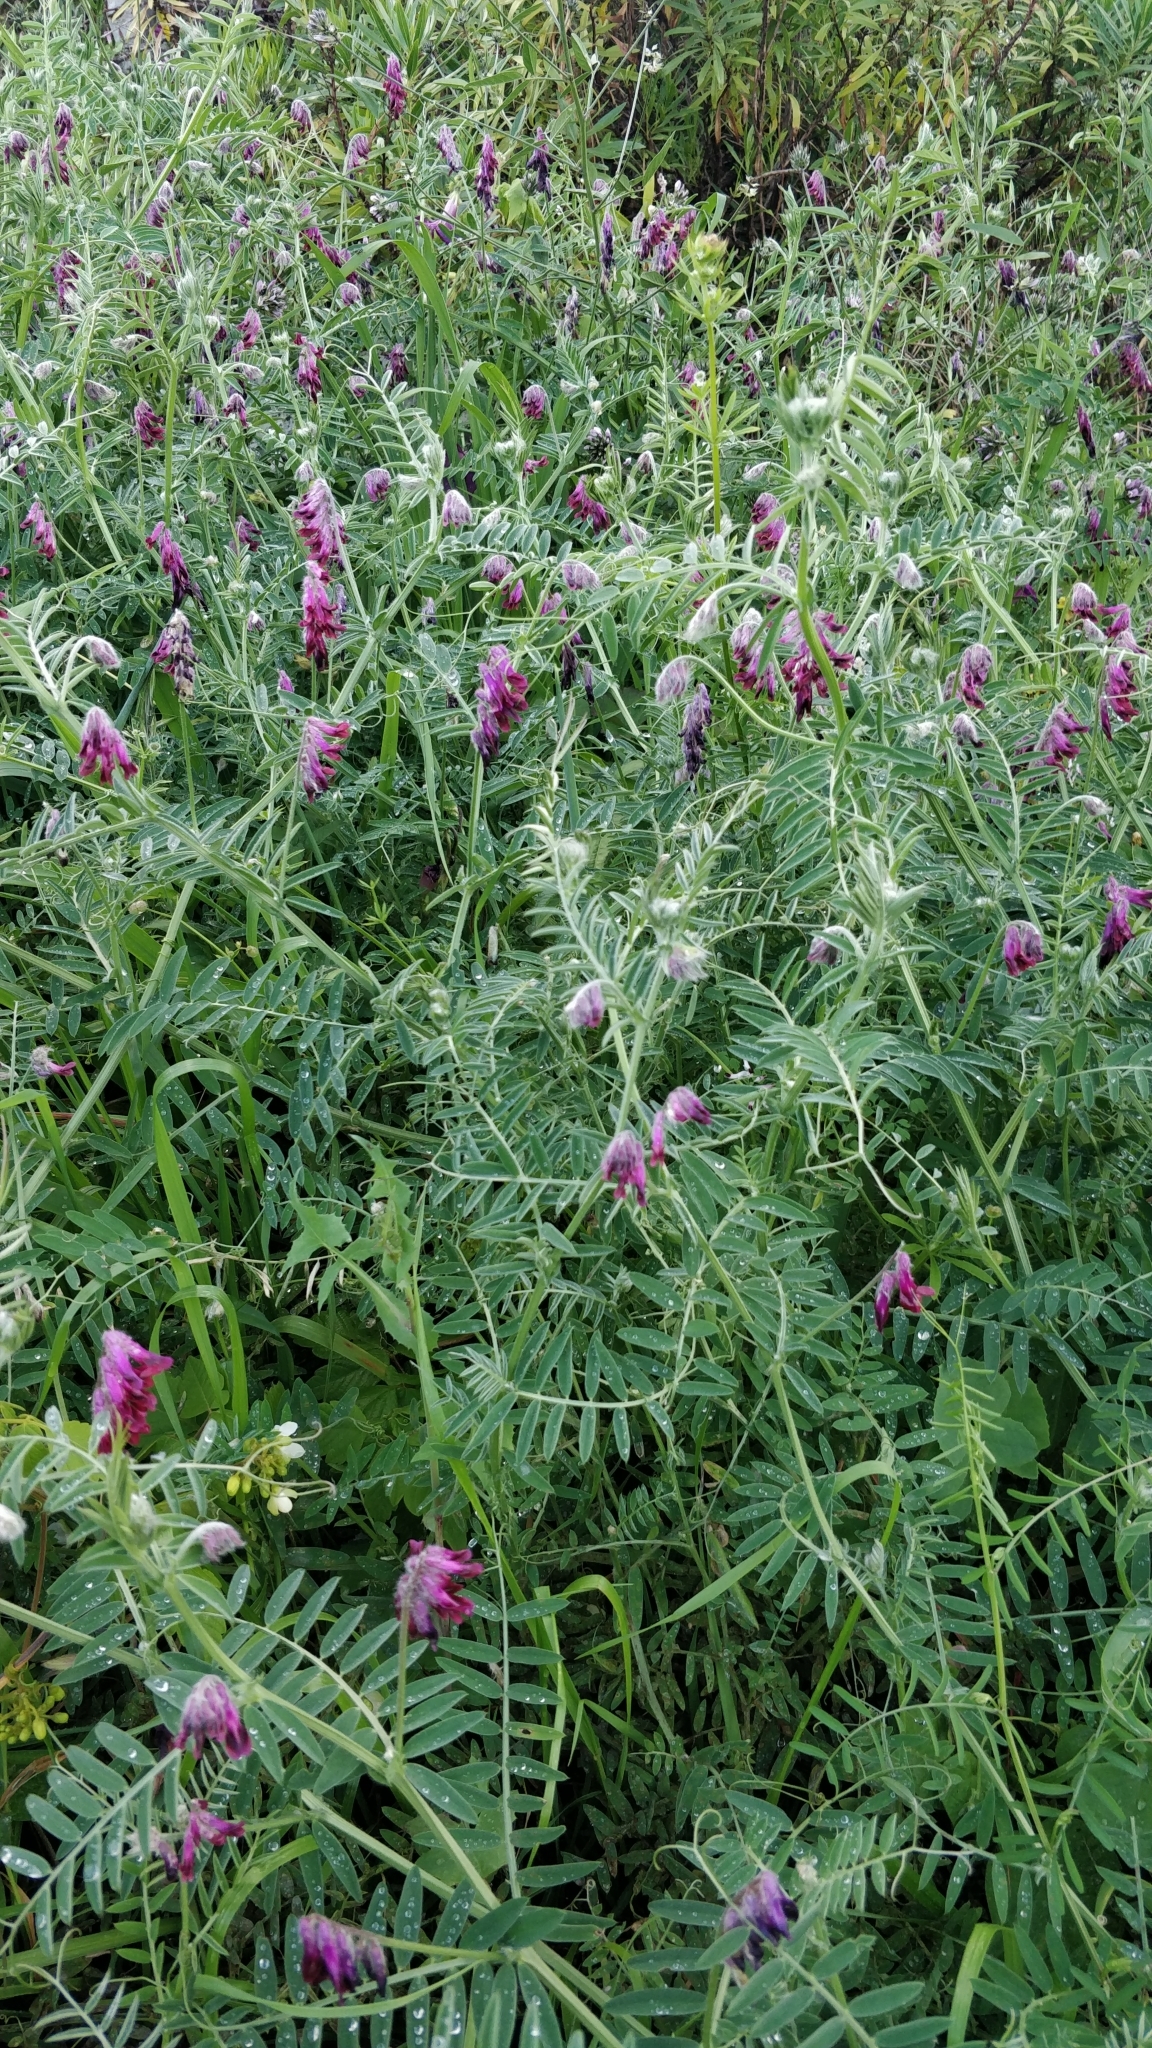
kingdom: Plantae
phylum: Tracheophyta
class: Magnoliopsida
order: Fabales
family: Fabaceae
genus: Vicia
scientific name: Vicia benghalensis
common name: Purple vetch
